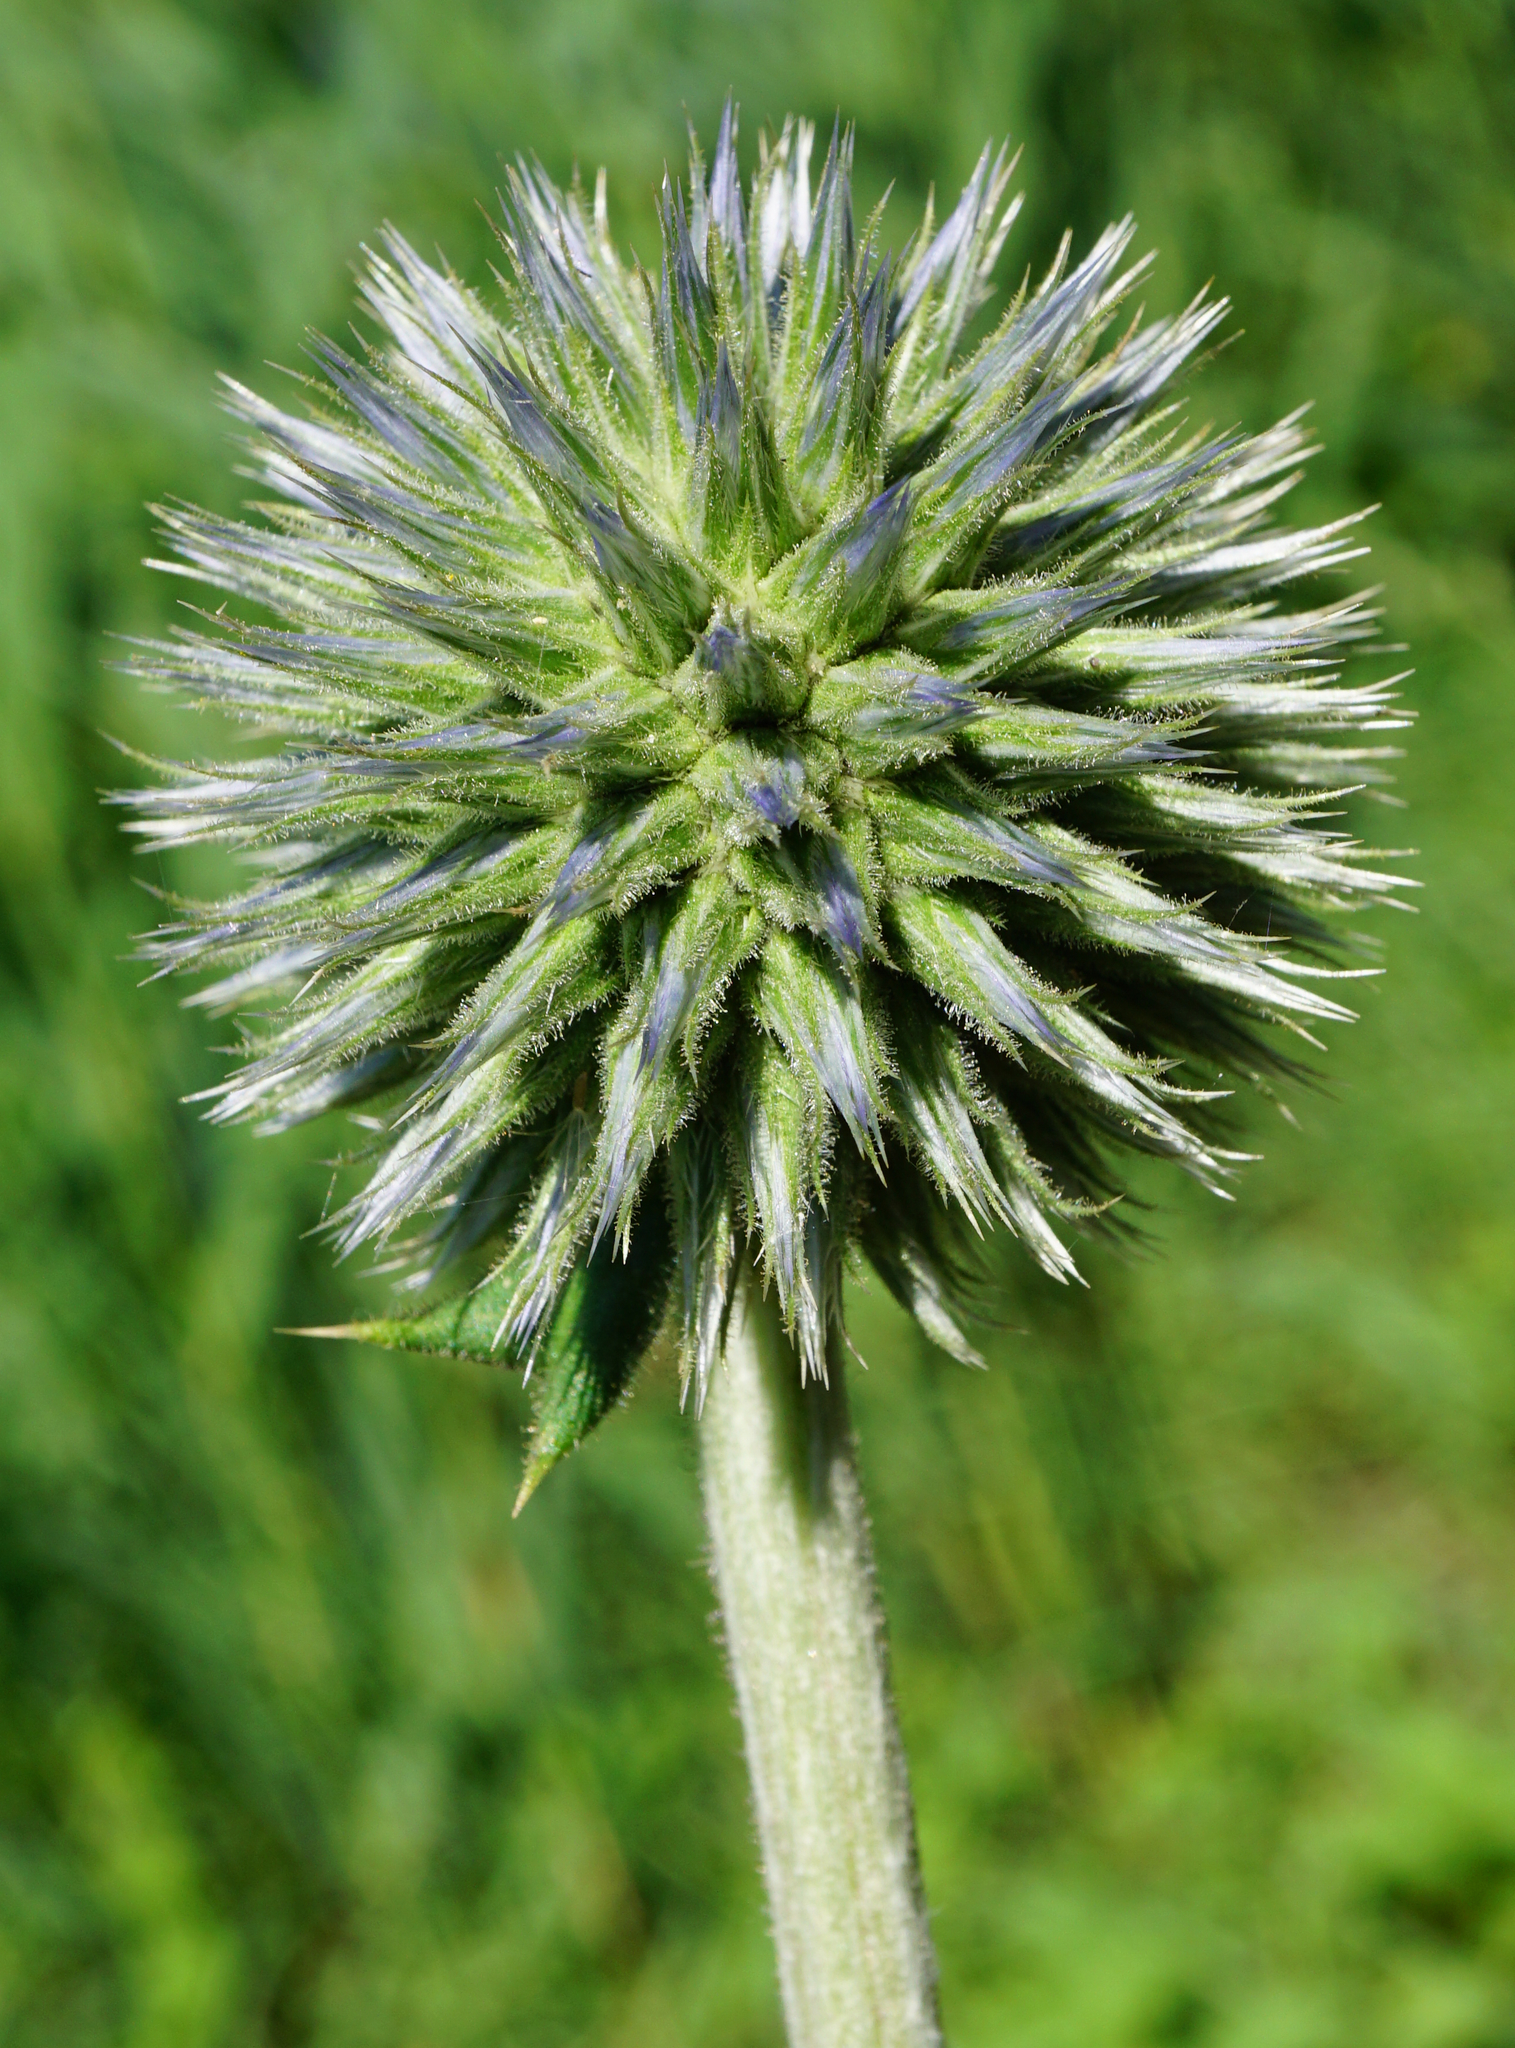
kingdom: Plantae
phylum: Tracheophyta
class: Magnoliopsida
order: Asterales
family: Asteraceae
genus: Echinops
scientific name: Echinops sphaerocephalus
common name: Glandular globe-thistle
